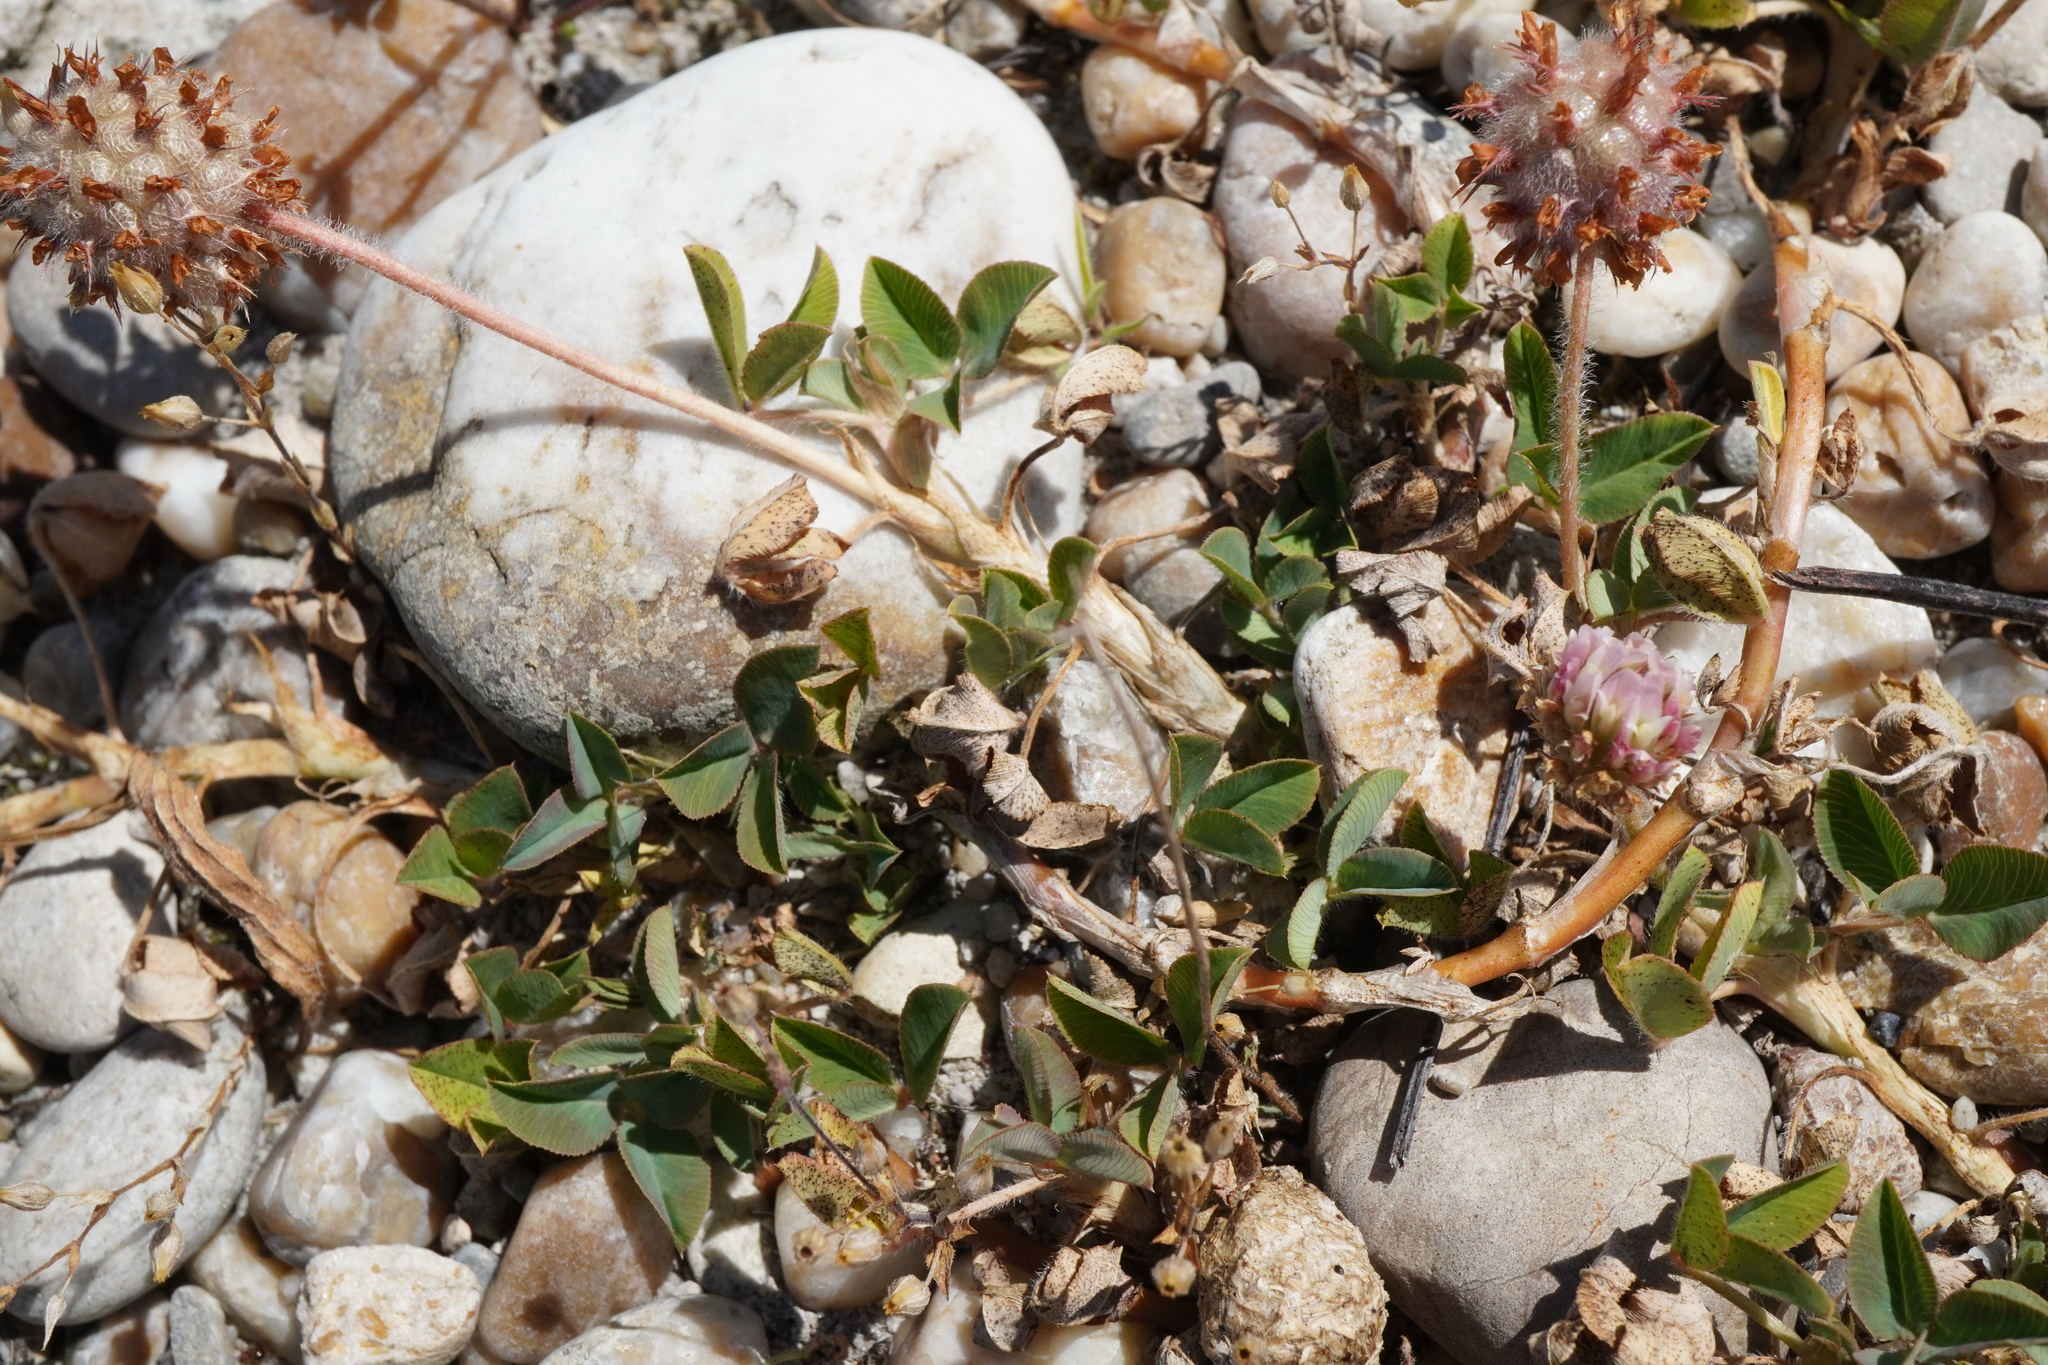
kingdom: Plantae
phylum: Tracheophyta
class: Magnoliopsida
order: Fabales
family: Fabaceae
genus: Trifolium
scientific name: Trifolium fragiferum
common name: Strawberry clover
